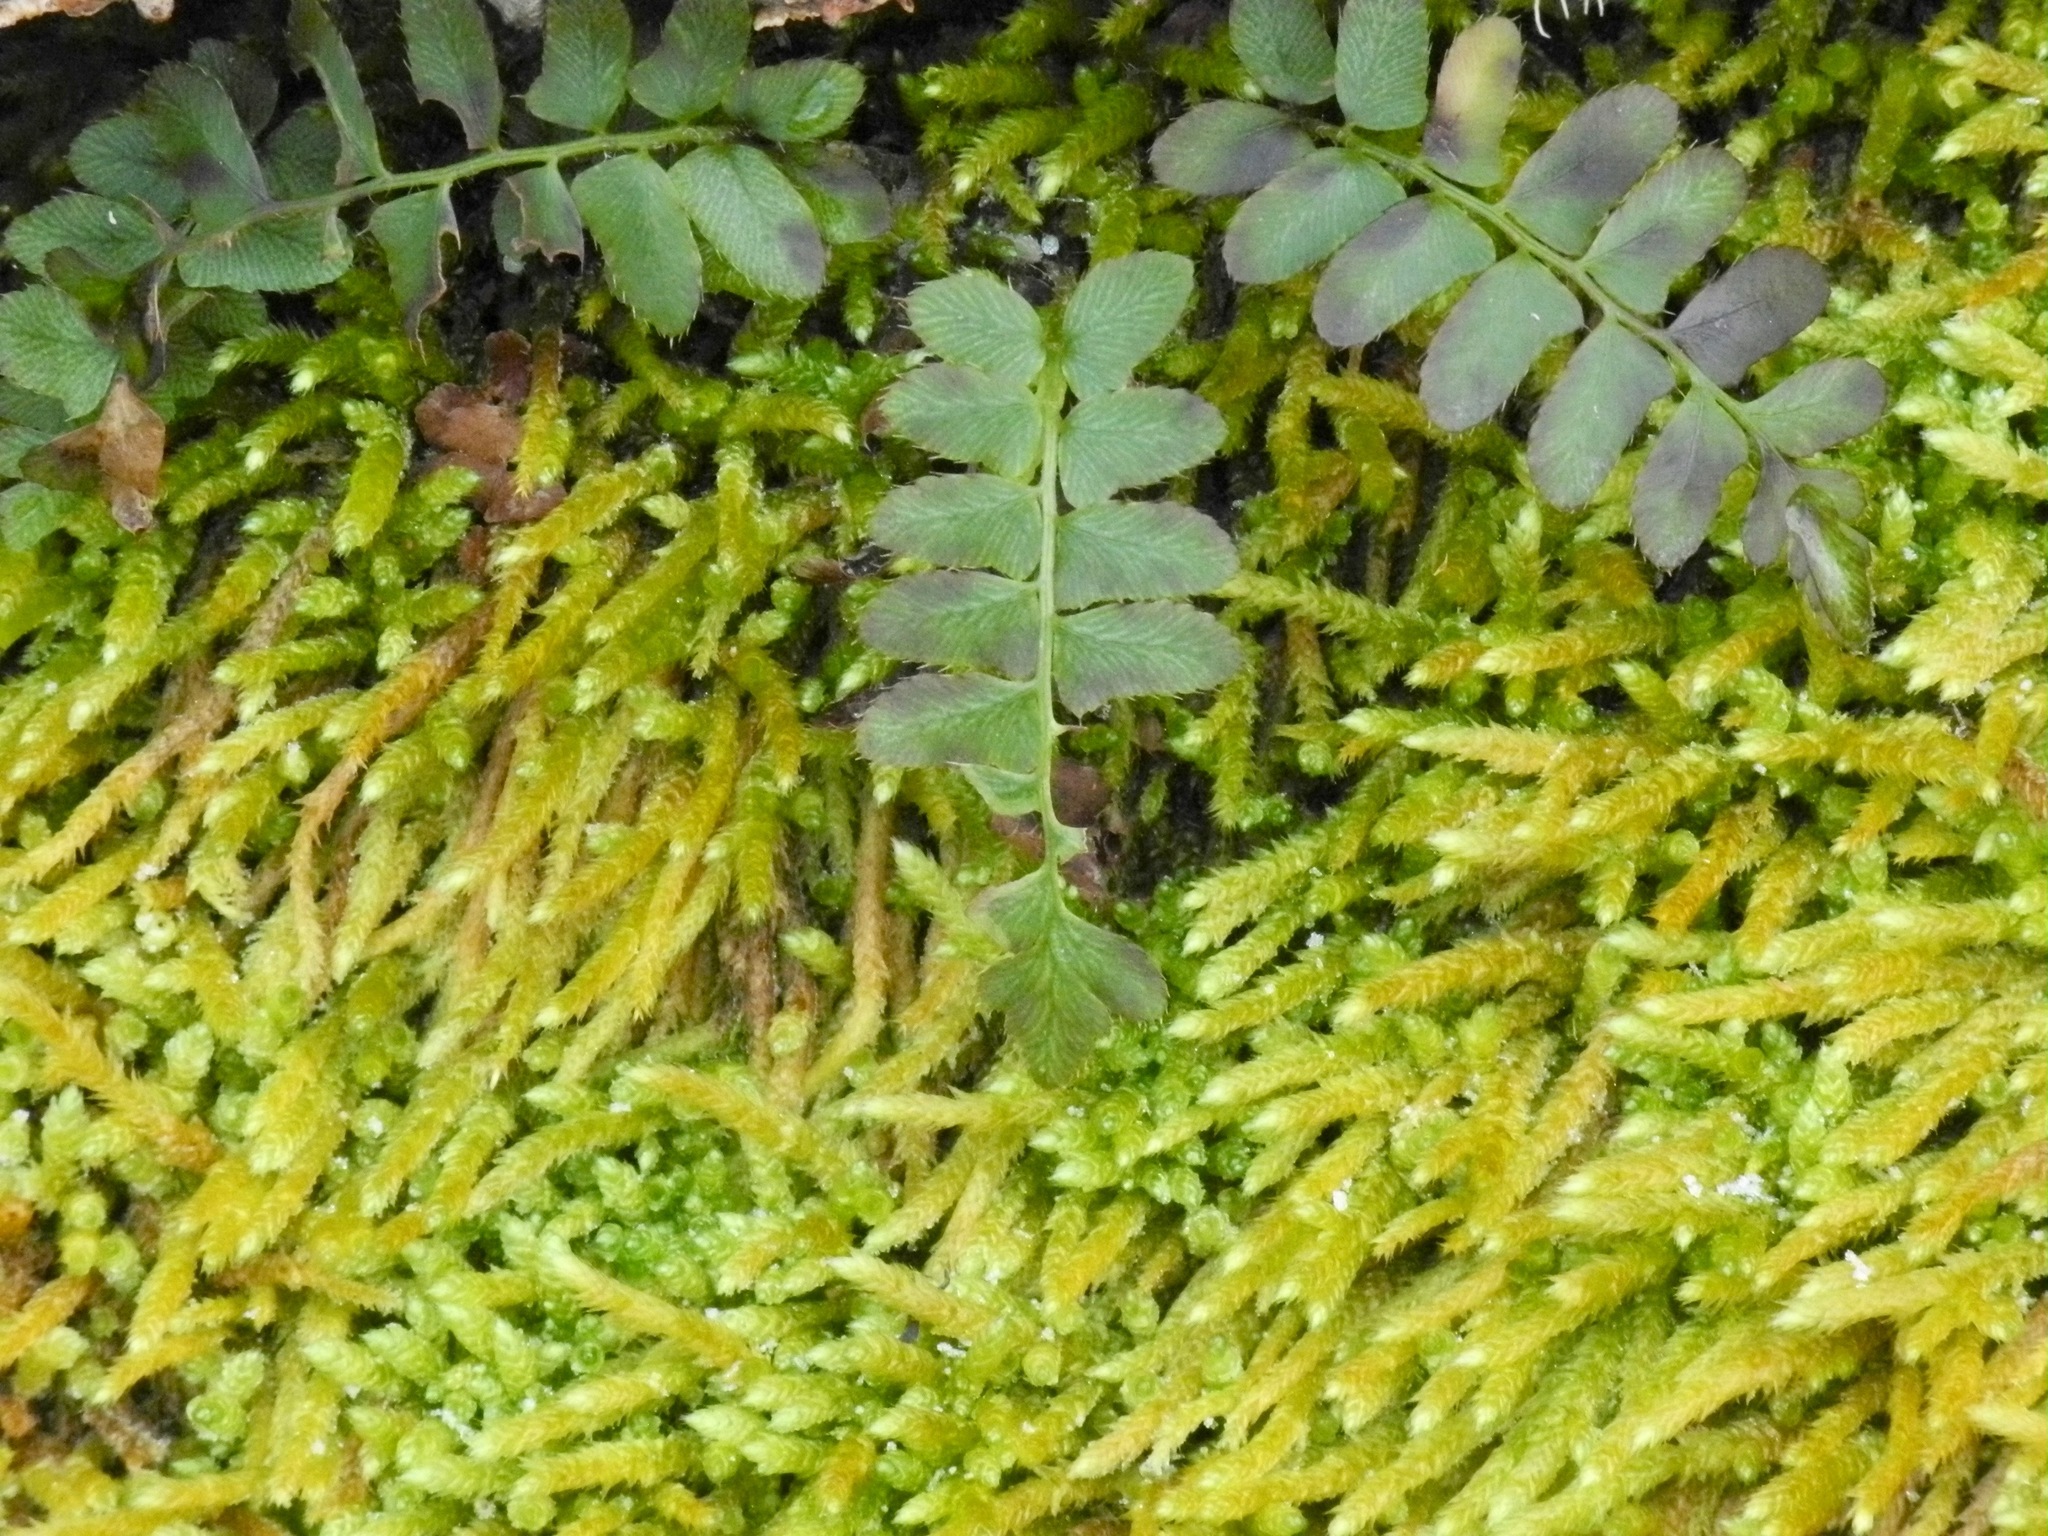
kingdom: Plantae
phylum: Tracheophyta
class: Polypodiopsida
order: Polypodiales
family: Dryopteridaceae
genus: Polystichum
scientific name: Polystichum acrostichoides
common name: Christmas fern
